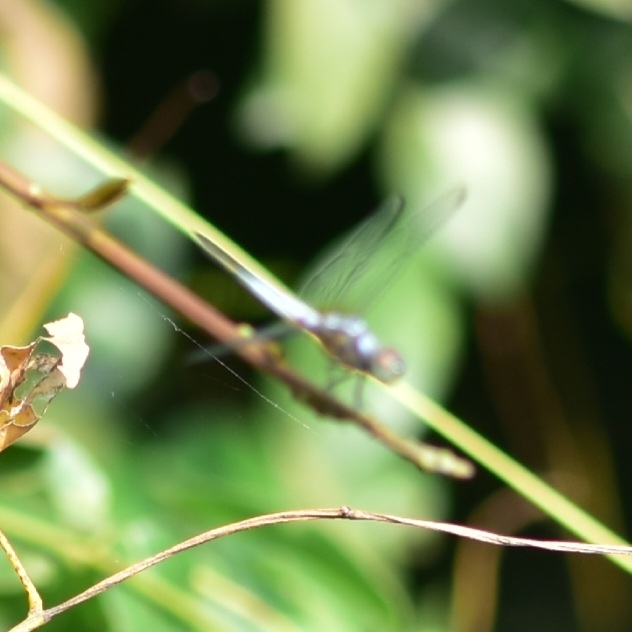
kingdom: Animalia
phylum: Arthropoda
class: Insecta
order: Odonata
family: Libellulidae
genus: Brachydiplax
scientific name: Brachydiplax chalybea
